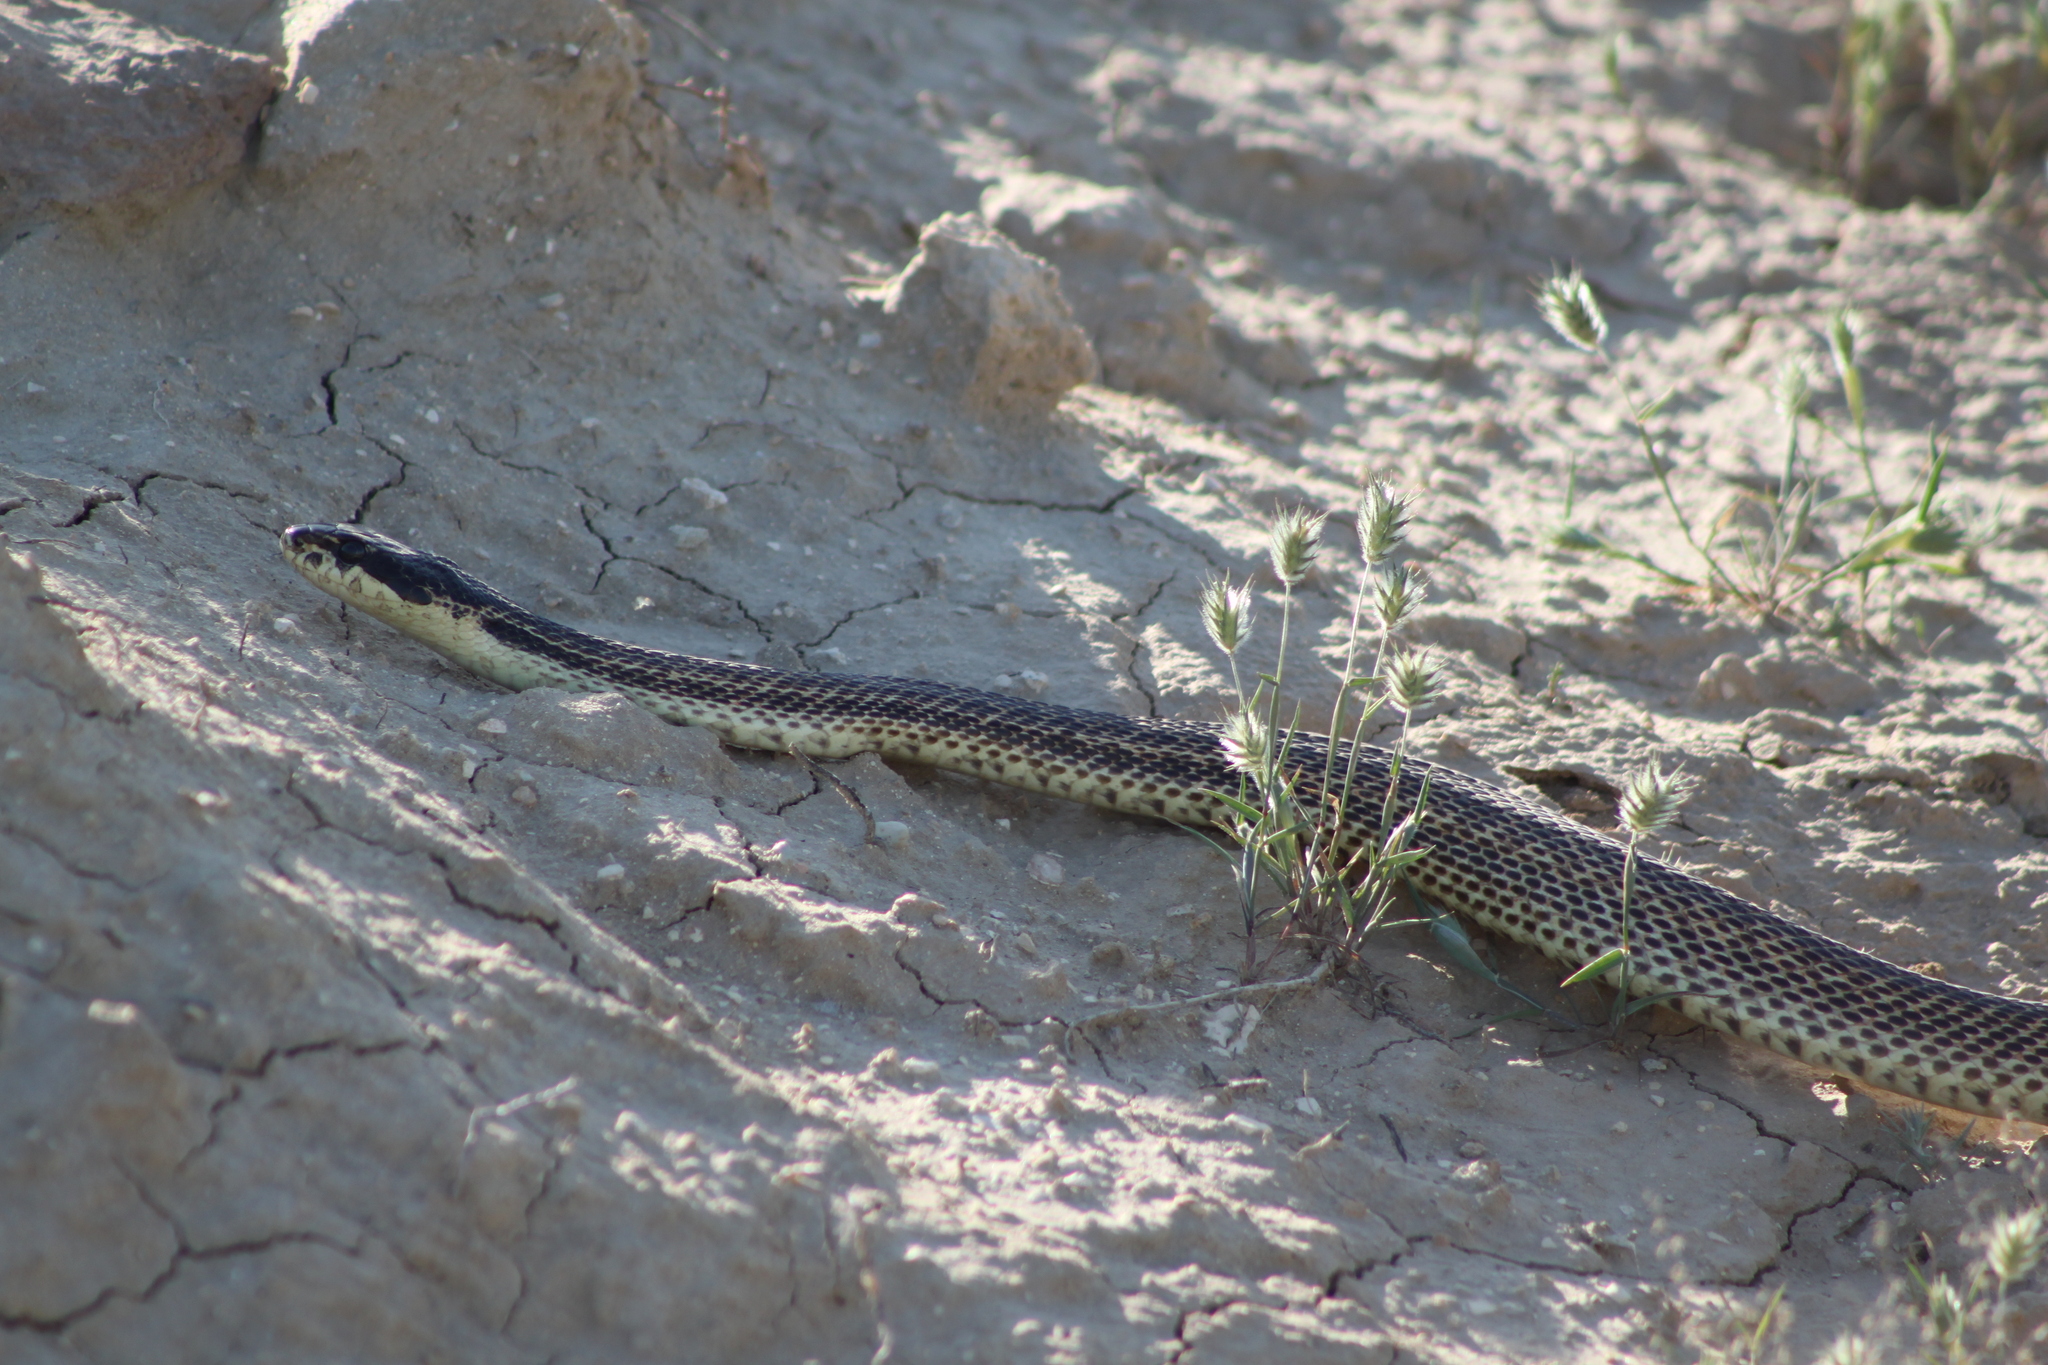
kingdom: Animalia
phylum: Chordata
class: Squamata
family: Colubridae
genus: Elaphe
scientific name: Elaphe sauromates
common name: Eastern four-lined ratsnake
